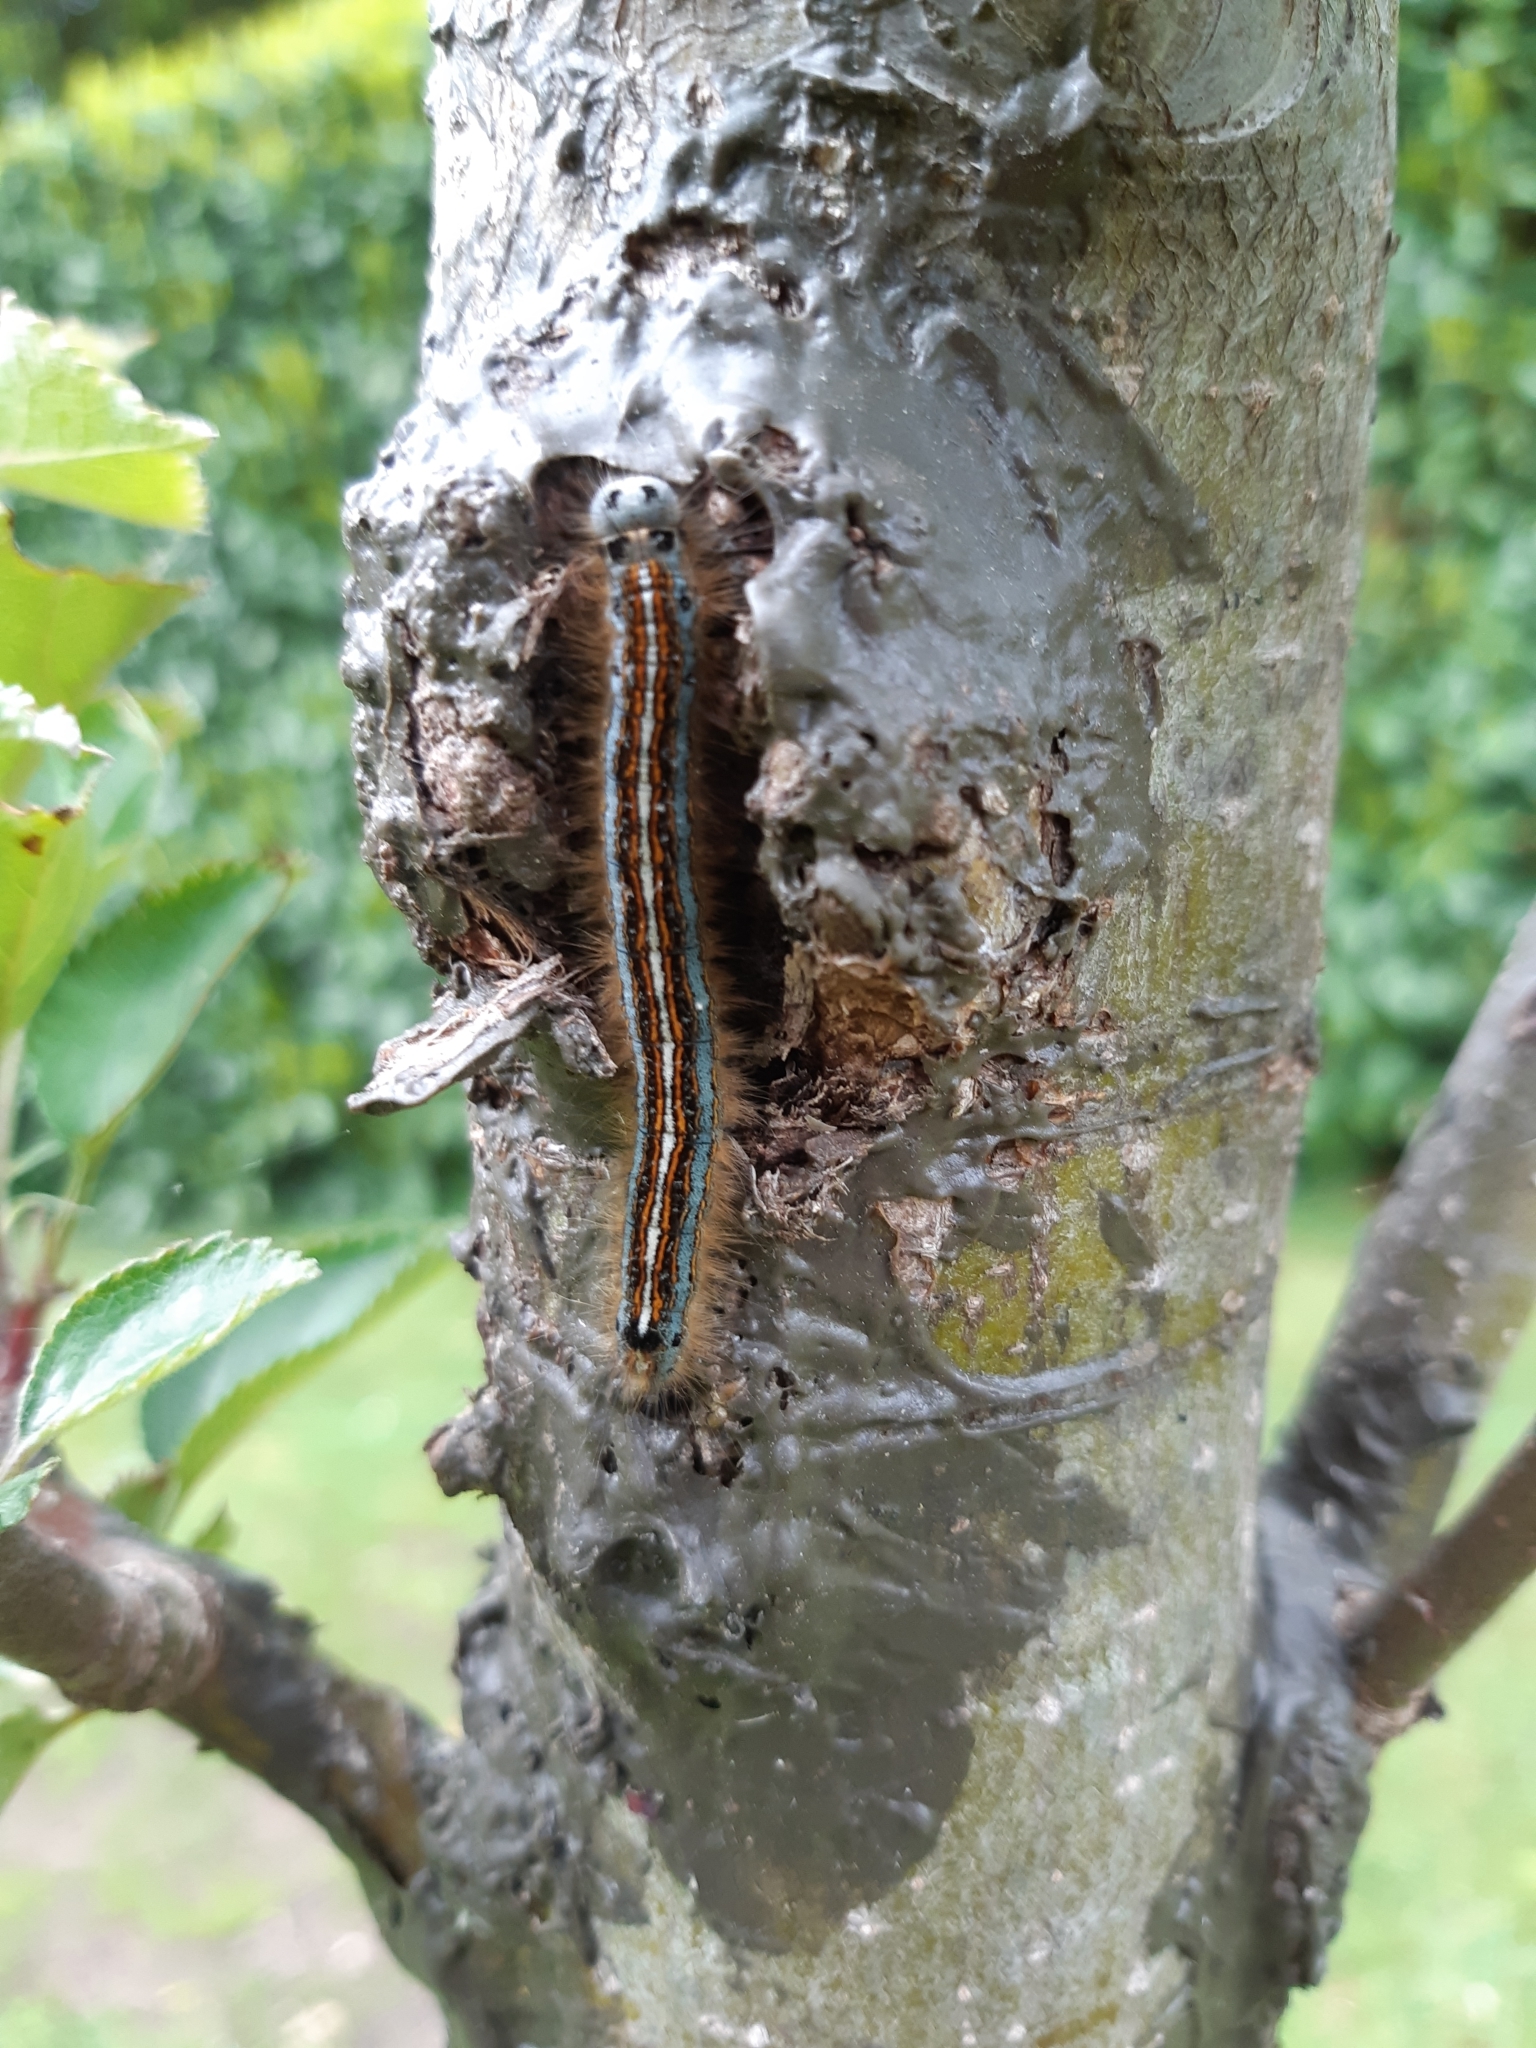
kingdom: Animalia
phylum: Arthropoda
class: Insecta
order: Lepidoptera
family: Lasiocampidae
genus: Malacosoma
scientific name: Malacosoma neustria
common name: The lackey
